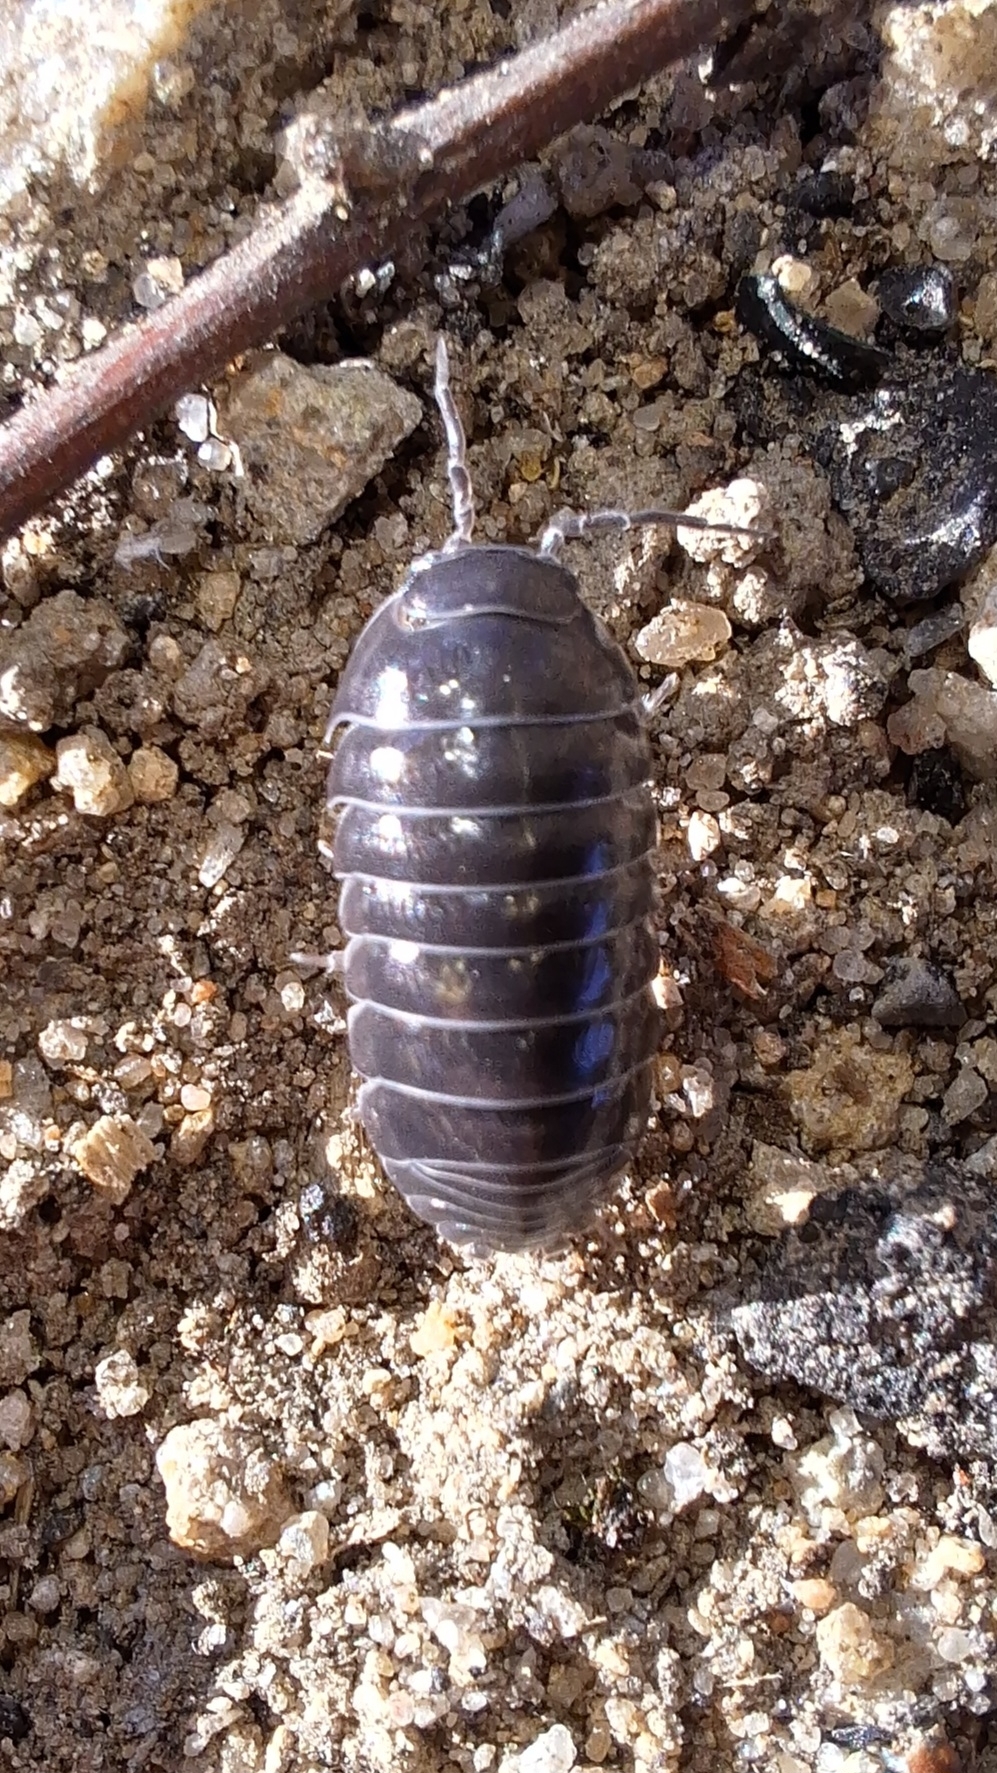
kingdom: Animalia
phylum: Arthropoda
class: Malacostraca
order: Isopoda
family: Armadillidiidae
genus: Armadillidium
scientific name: Armadillidium vulgare
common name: Common pill woodlouse
